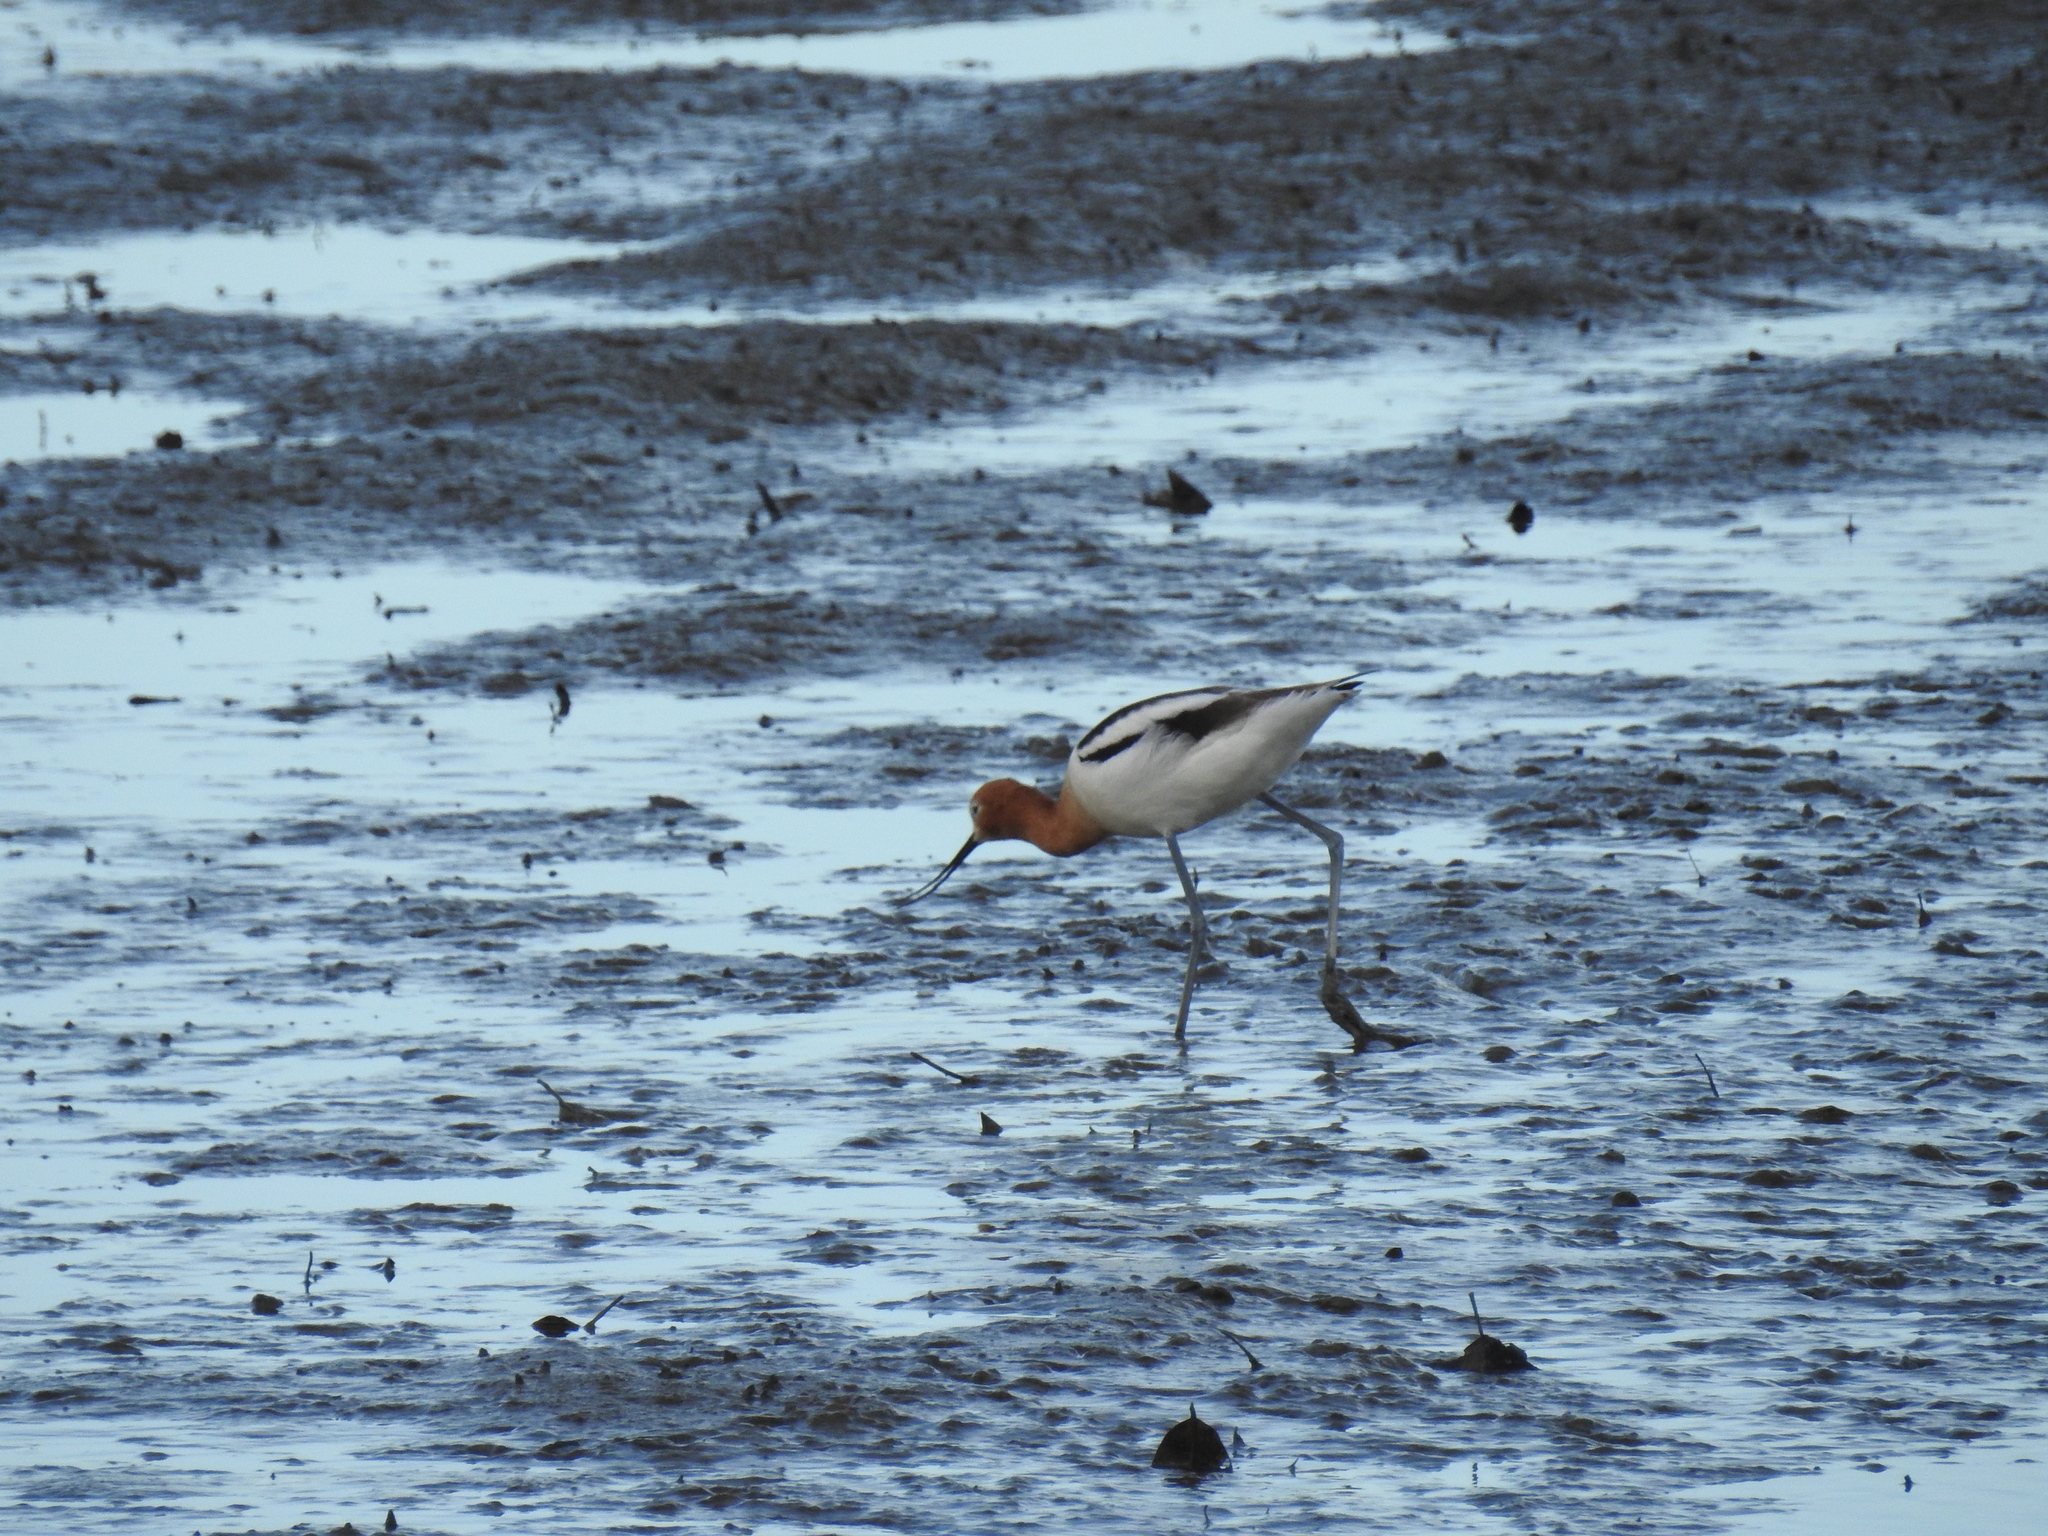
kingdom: Animalia
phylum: Chordata
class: Aves
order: Charadriiformes
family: Recurvirostridae
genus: Recurvirostra
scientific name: Recurvirostra americana
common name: American avocet
